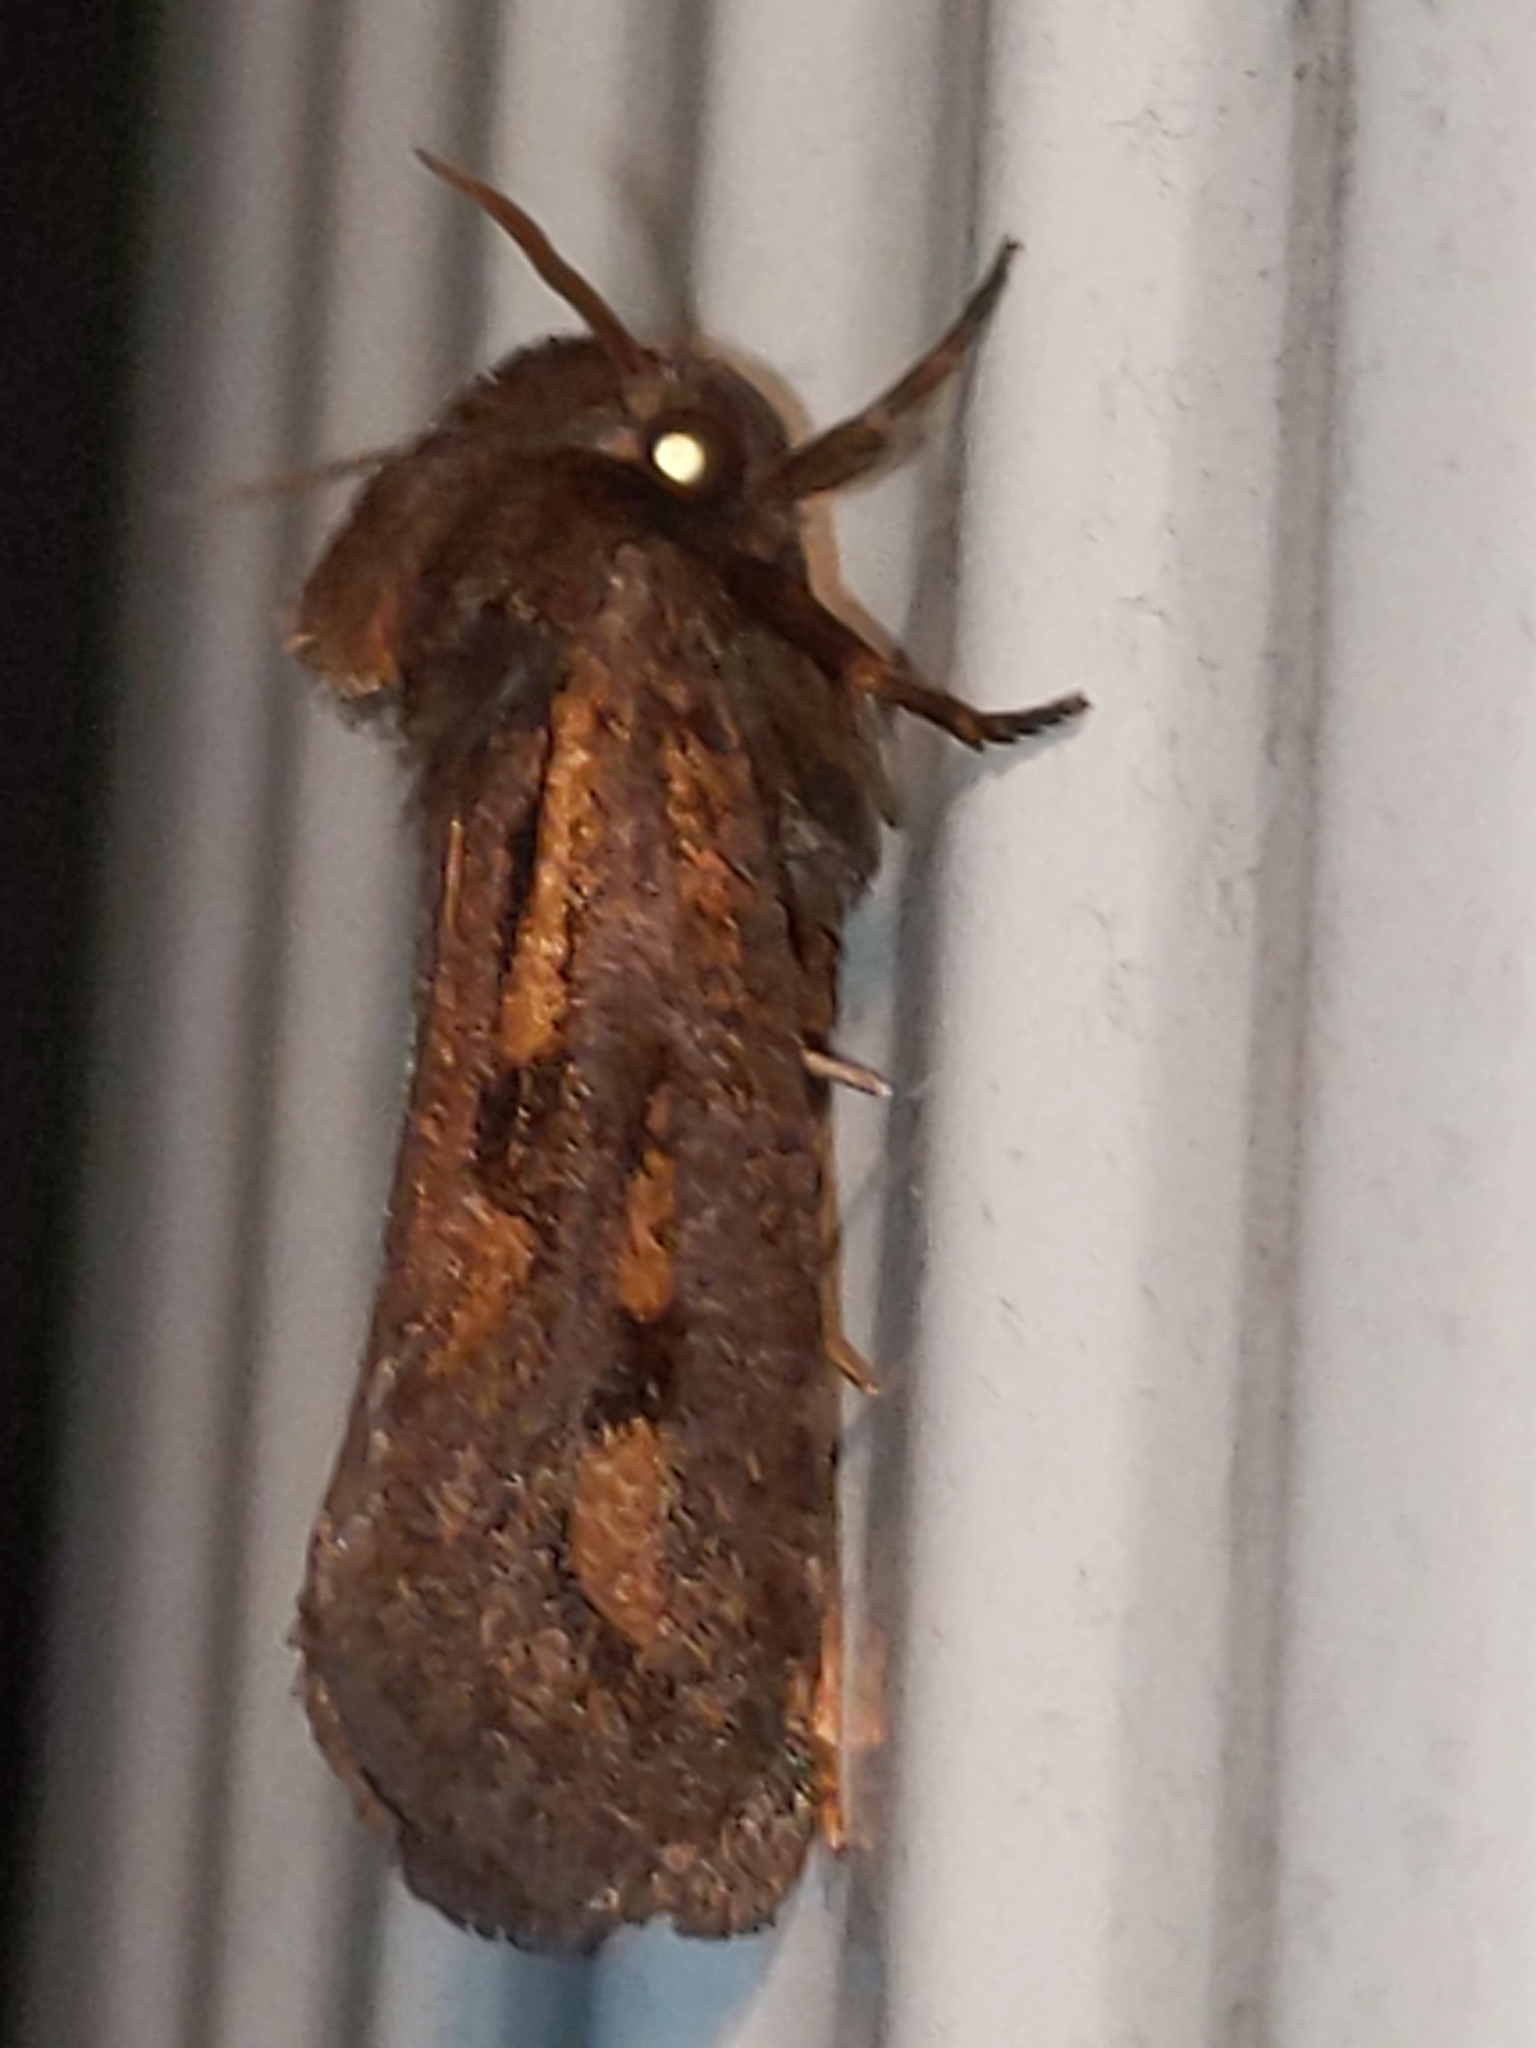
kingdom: Animalia
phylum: Arthropoda
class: Insecta
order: Lepidoptera
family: Tineidae
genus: Acrolophus
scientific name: Acrolophus popeanella
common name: Clemens' grass tubeworm moth
